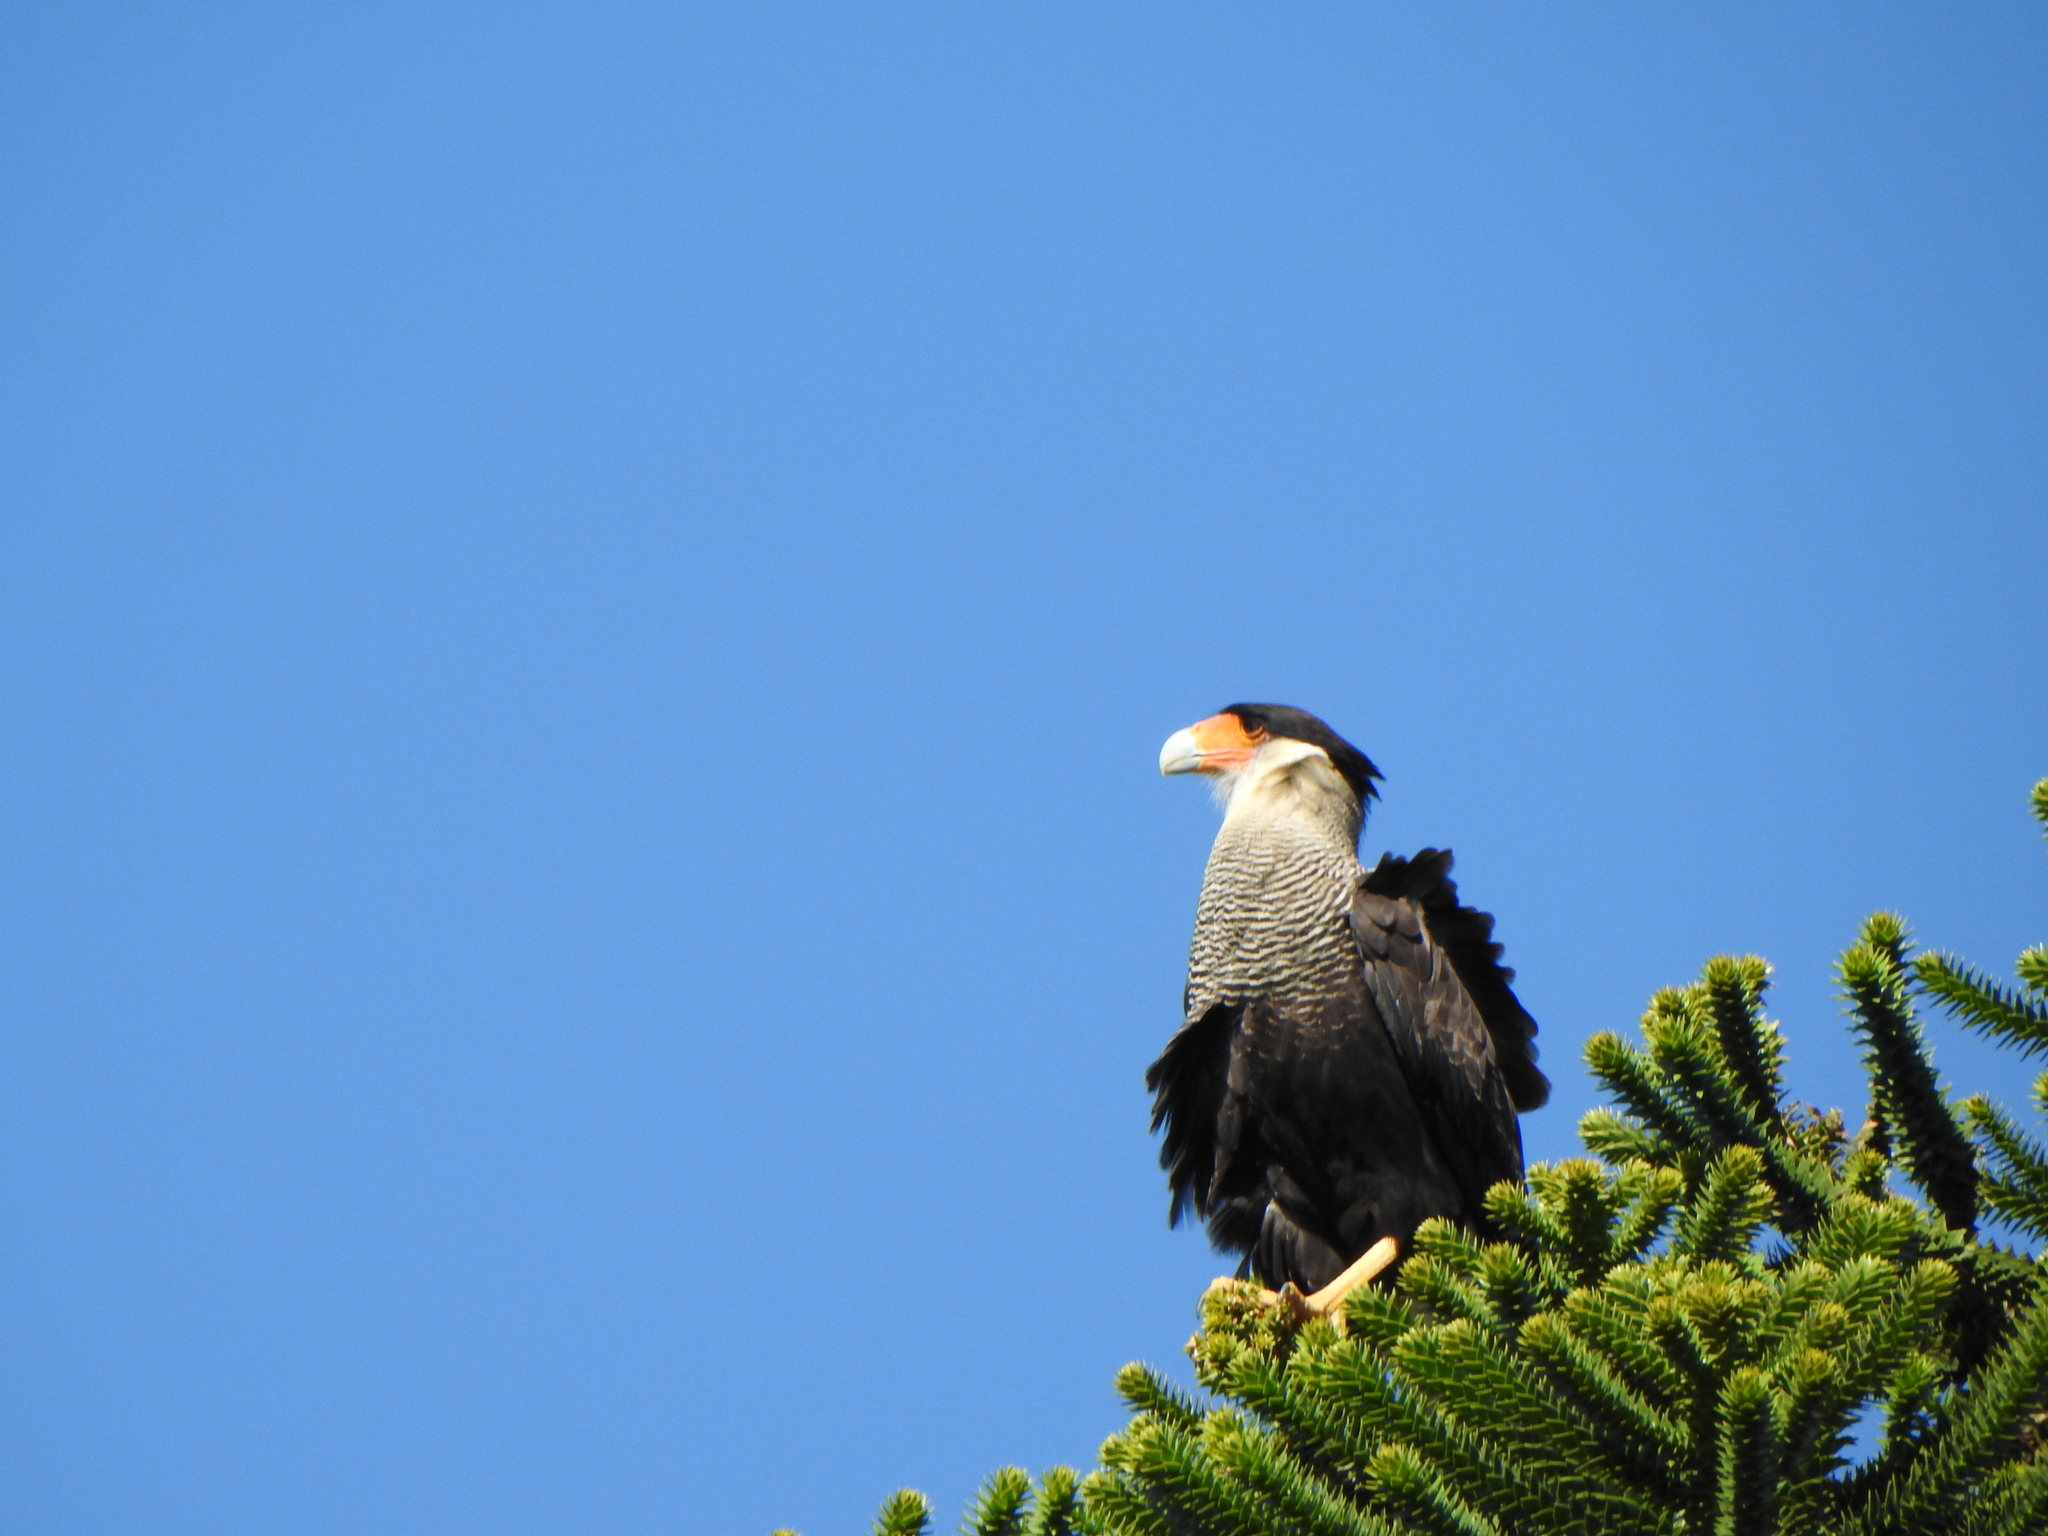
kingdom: Animalia
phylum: Chordata
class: Aves
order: Falconiformes
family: Falconidae
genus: Caracara
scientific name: Caracara plancus
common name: Southern caracara
